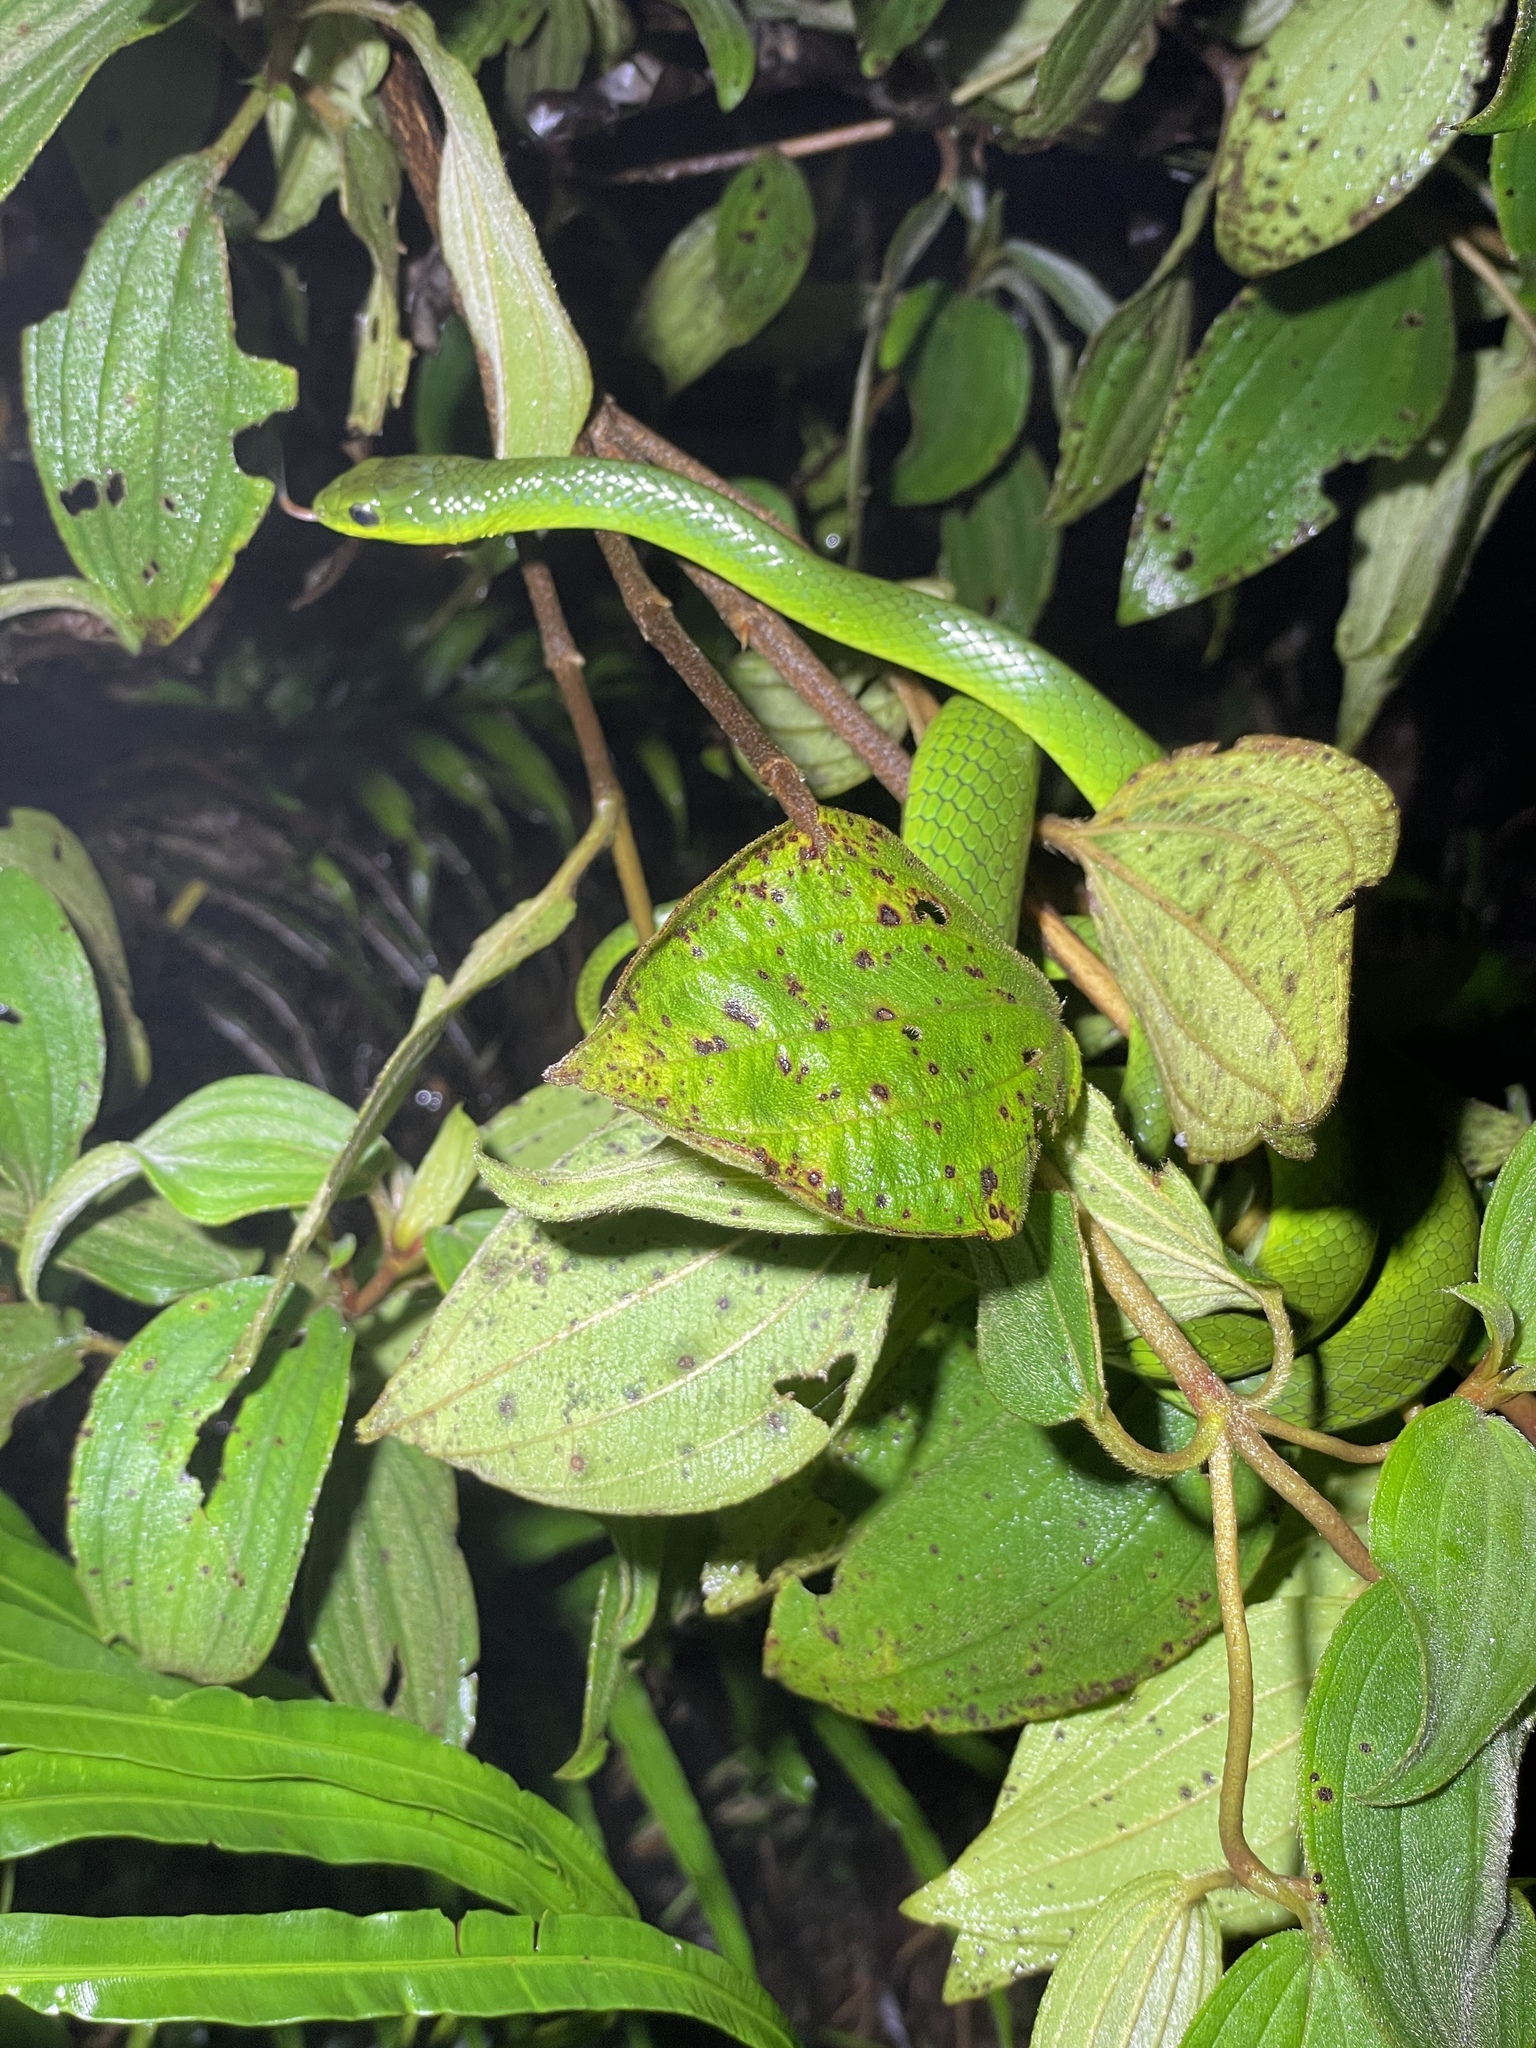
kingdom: Animalia
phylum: Chordata
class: Squamata
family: Colubridae
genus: Ptyas
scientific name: Ptyas major
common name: Chinese green snake
